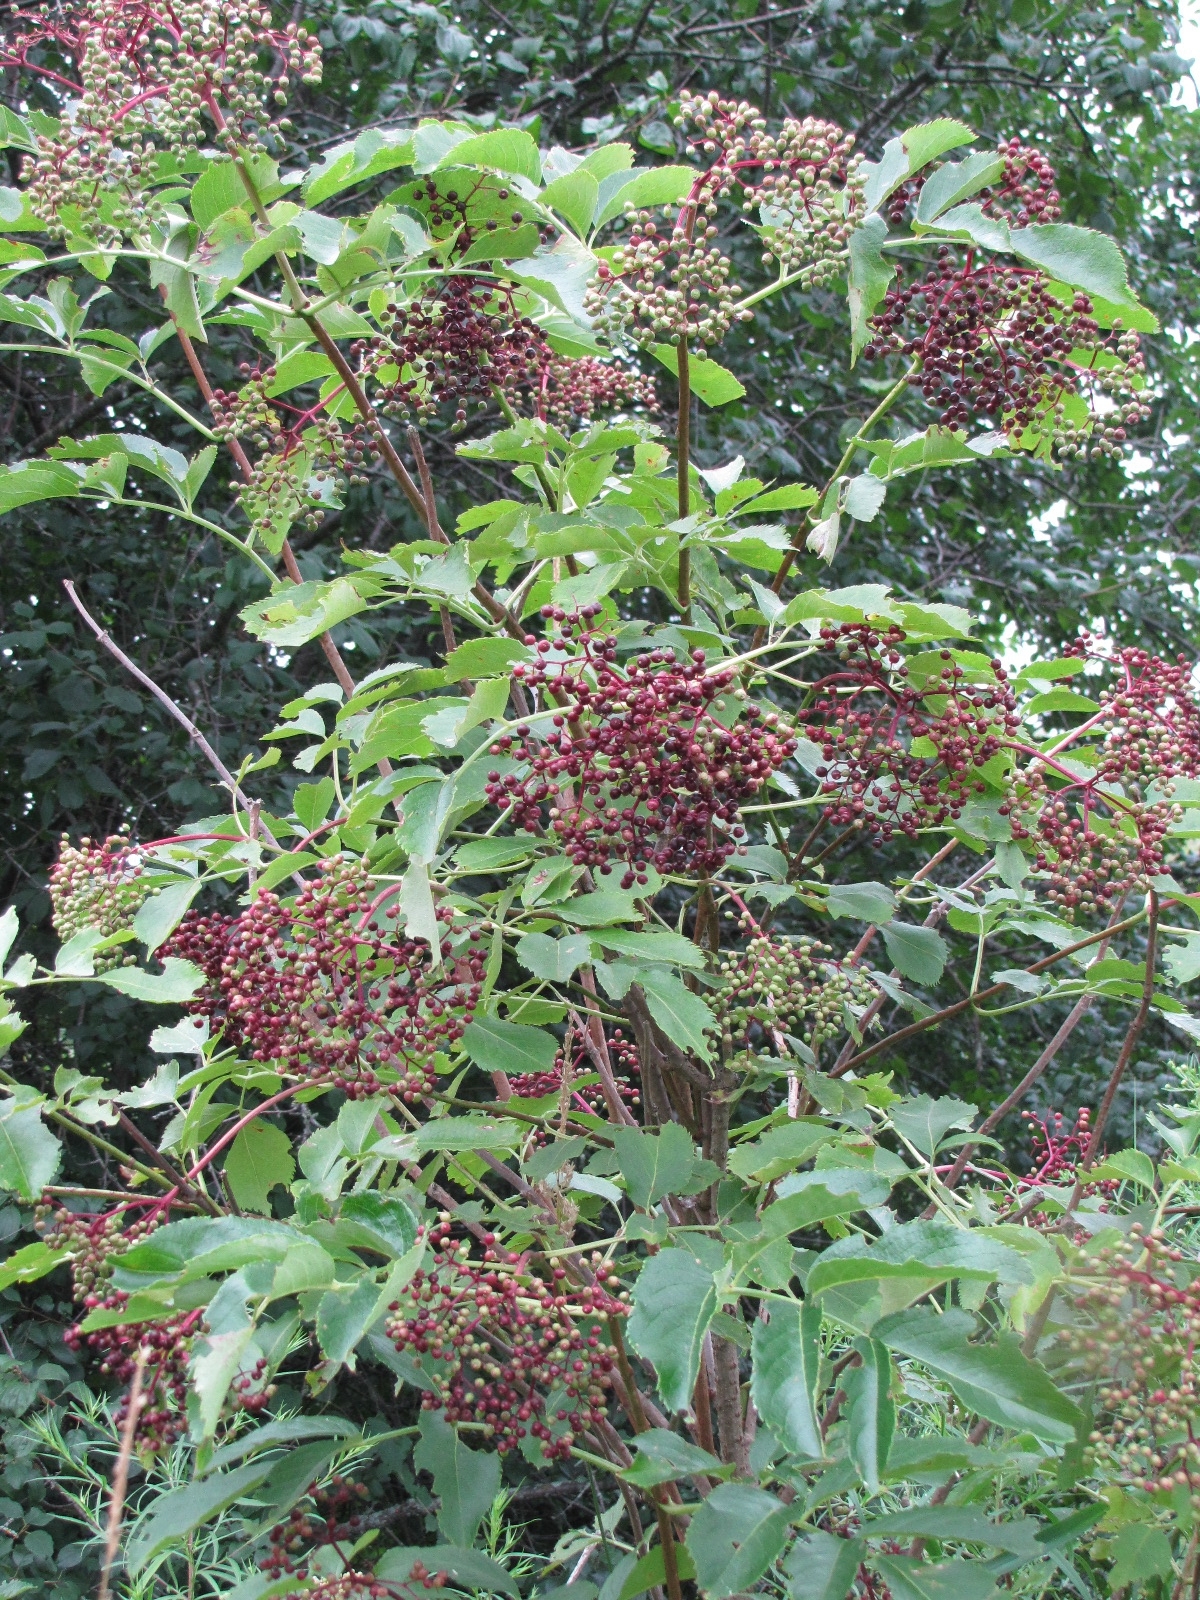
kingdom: Plantae
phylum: Tracheophyta
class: Magnoliopsida
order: Dipsacales
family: Viburnaceae
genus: Sambucus
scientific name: Sambucus canadensis
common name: American elder
